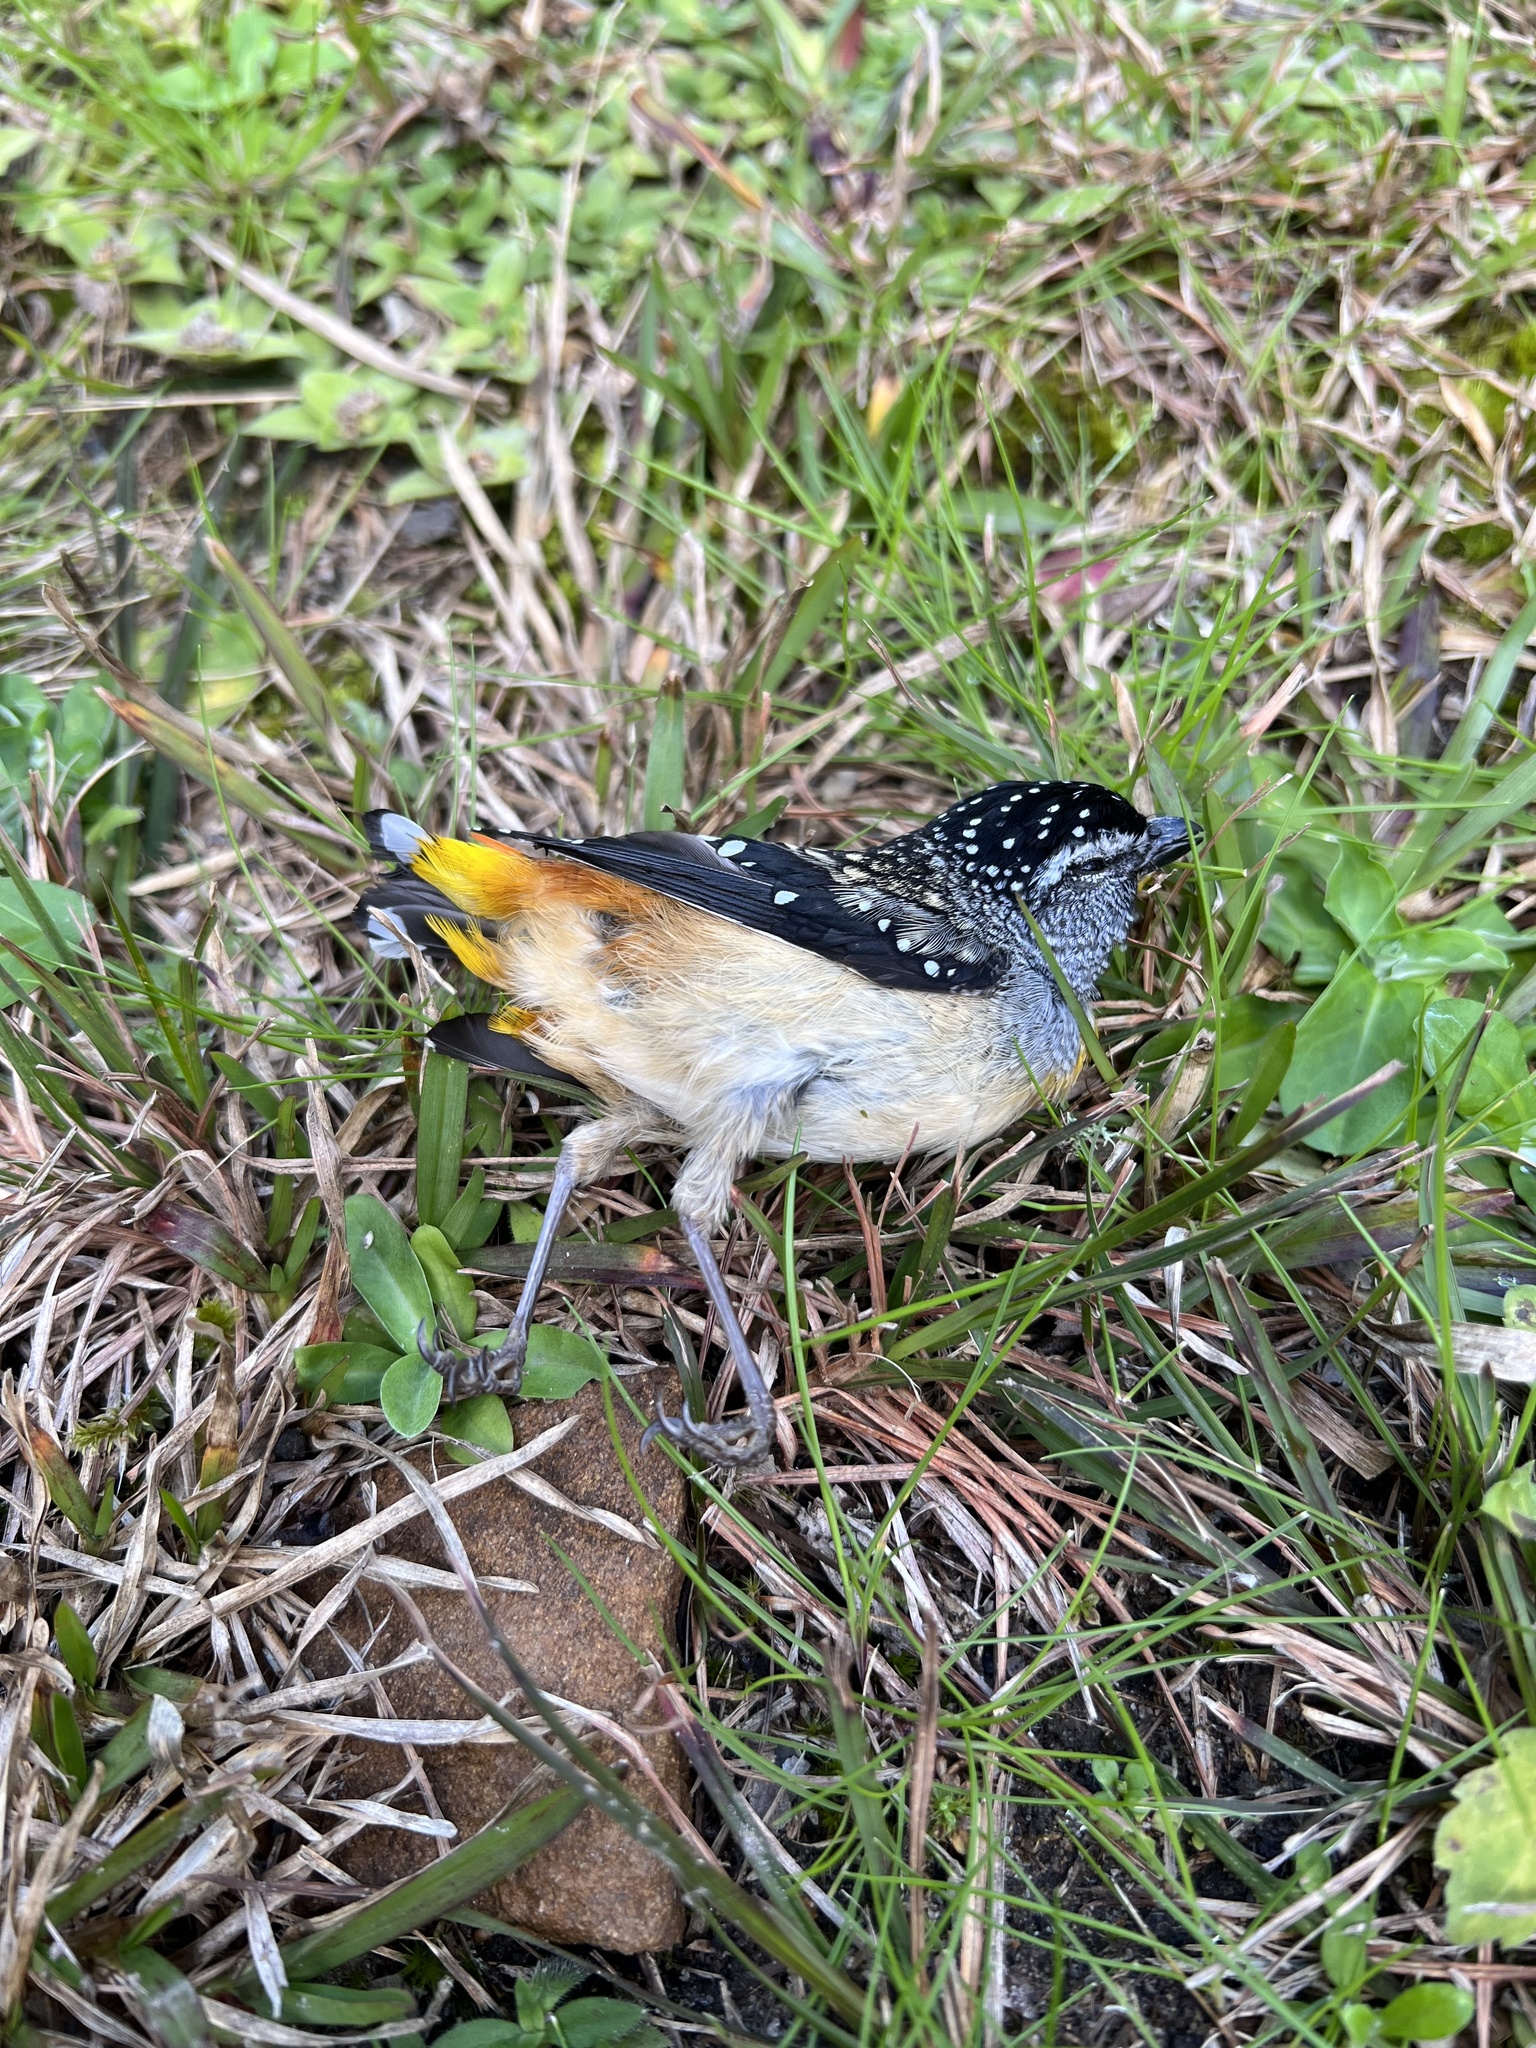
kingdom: Animalia
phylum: Chordata
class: Aves
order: Passeriformes
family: Pardalotidae
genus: Pardalotus
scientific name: Pardalotus punctatus
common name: Spotted pardalote
